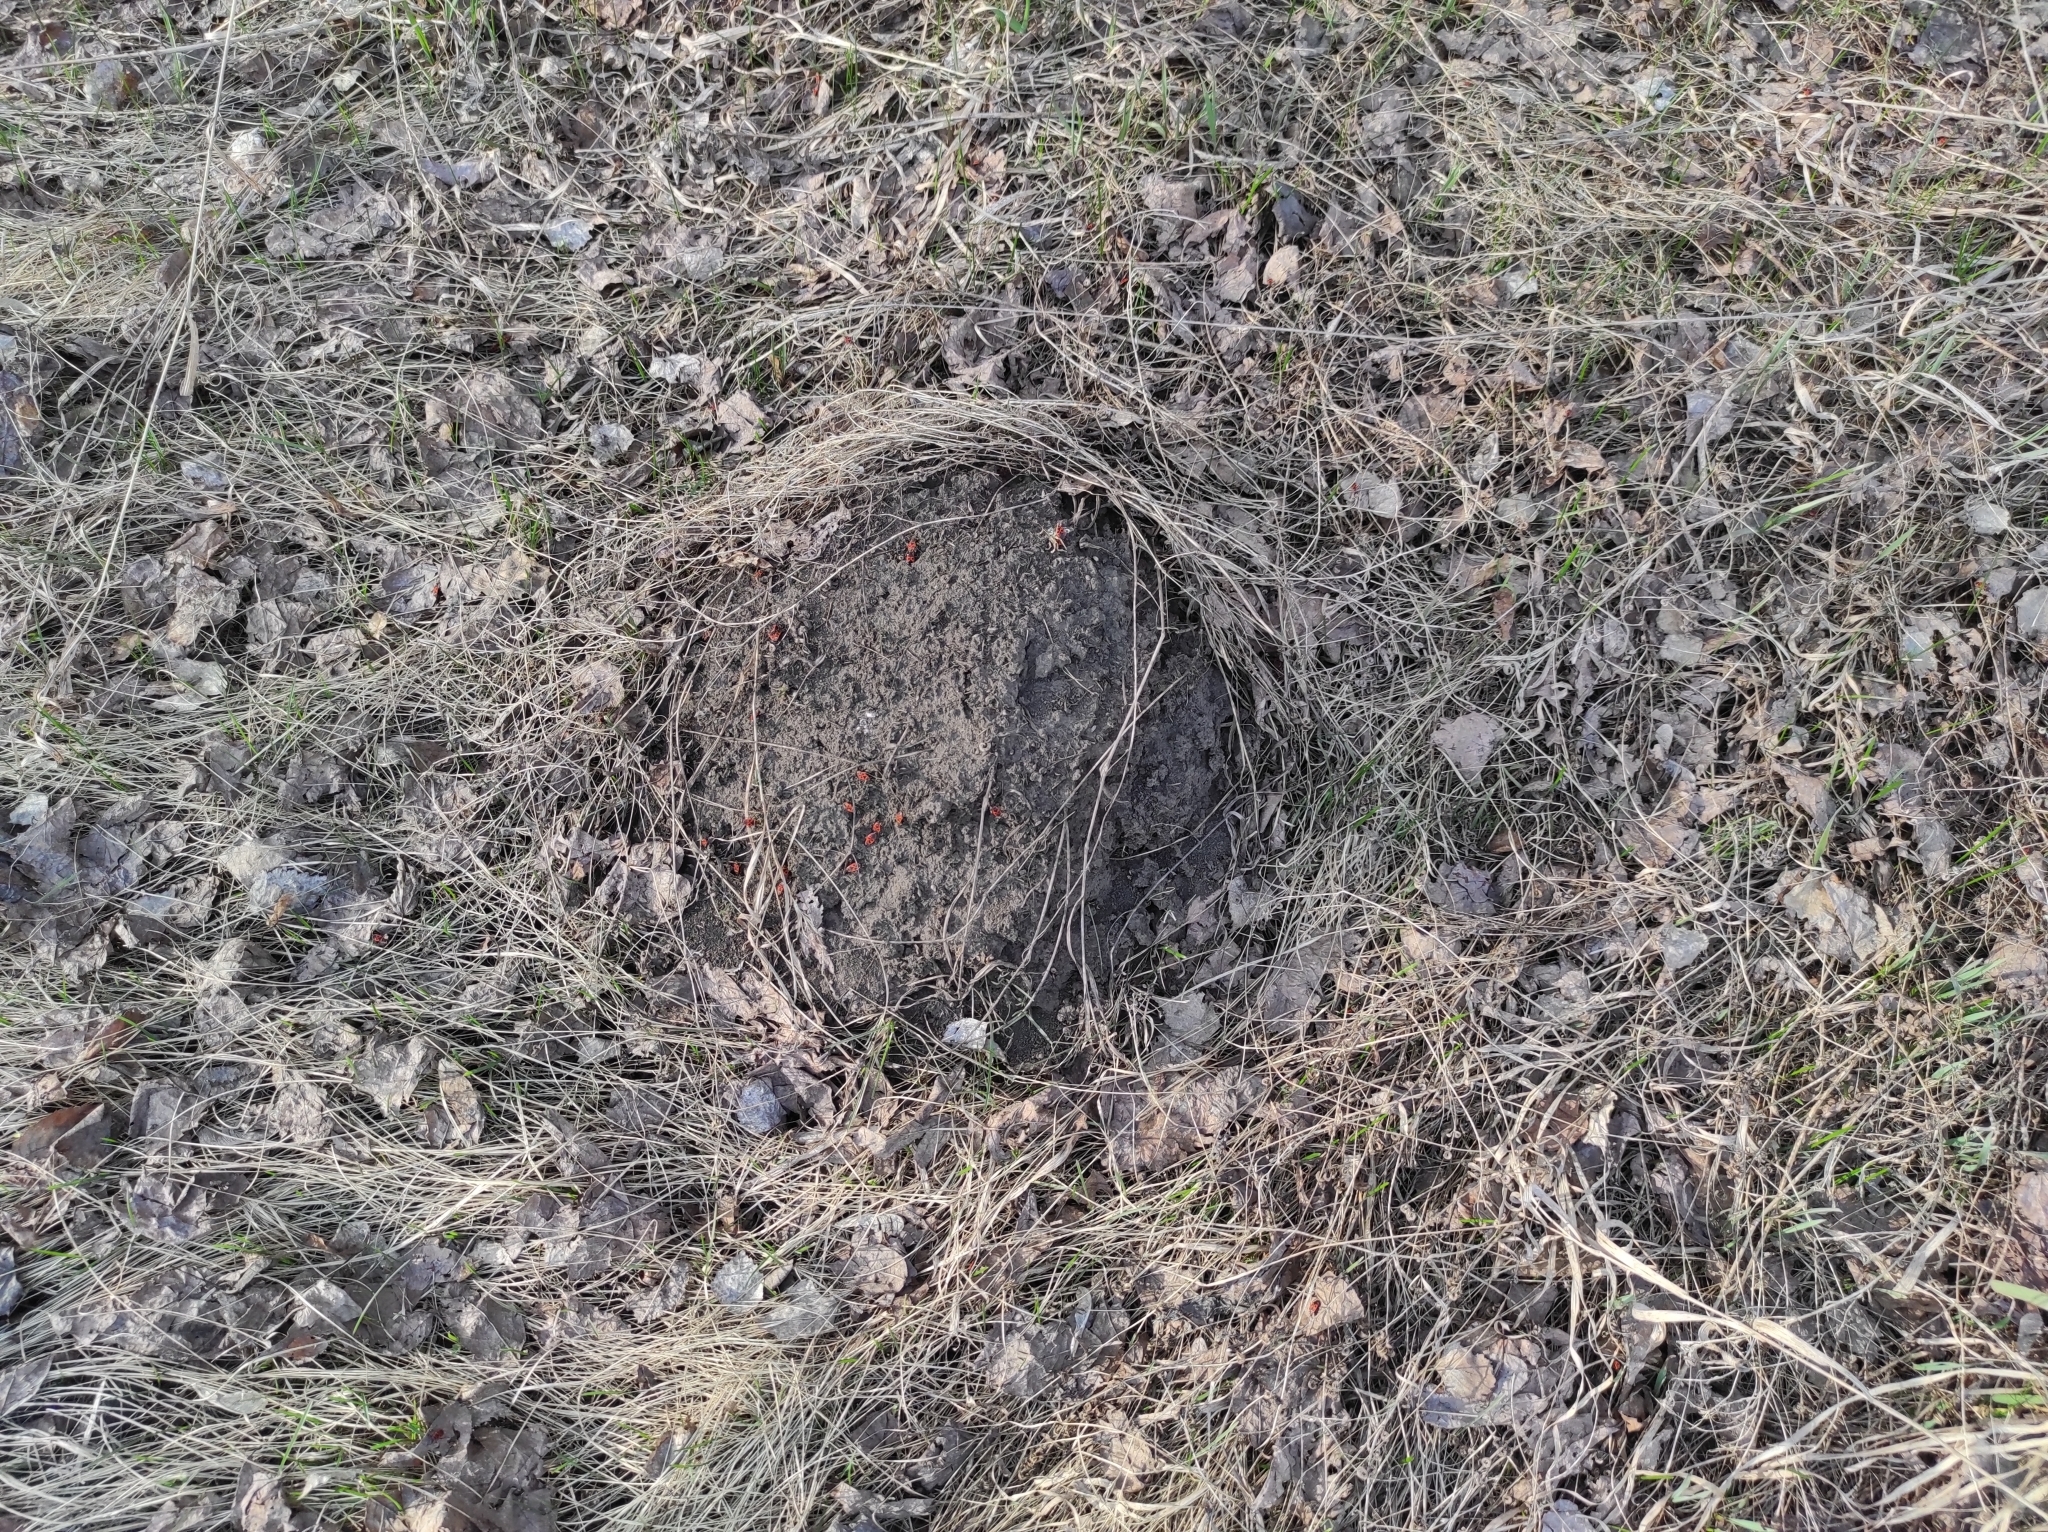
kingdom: Animalia
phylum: Arthropoda
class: Insecta
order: Hemiptera
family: Pyrrhocoridae
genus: Pyrrhocoris
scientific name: Pyrrhocoris apterus
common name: Firebug
